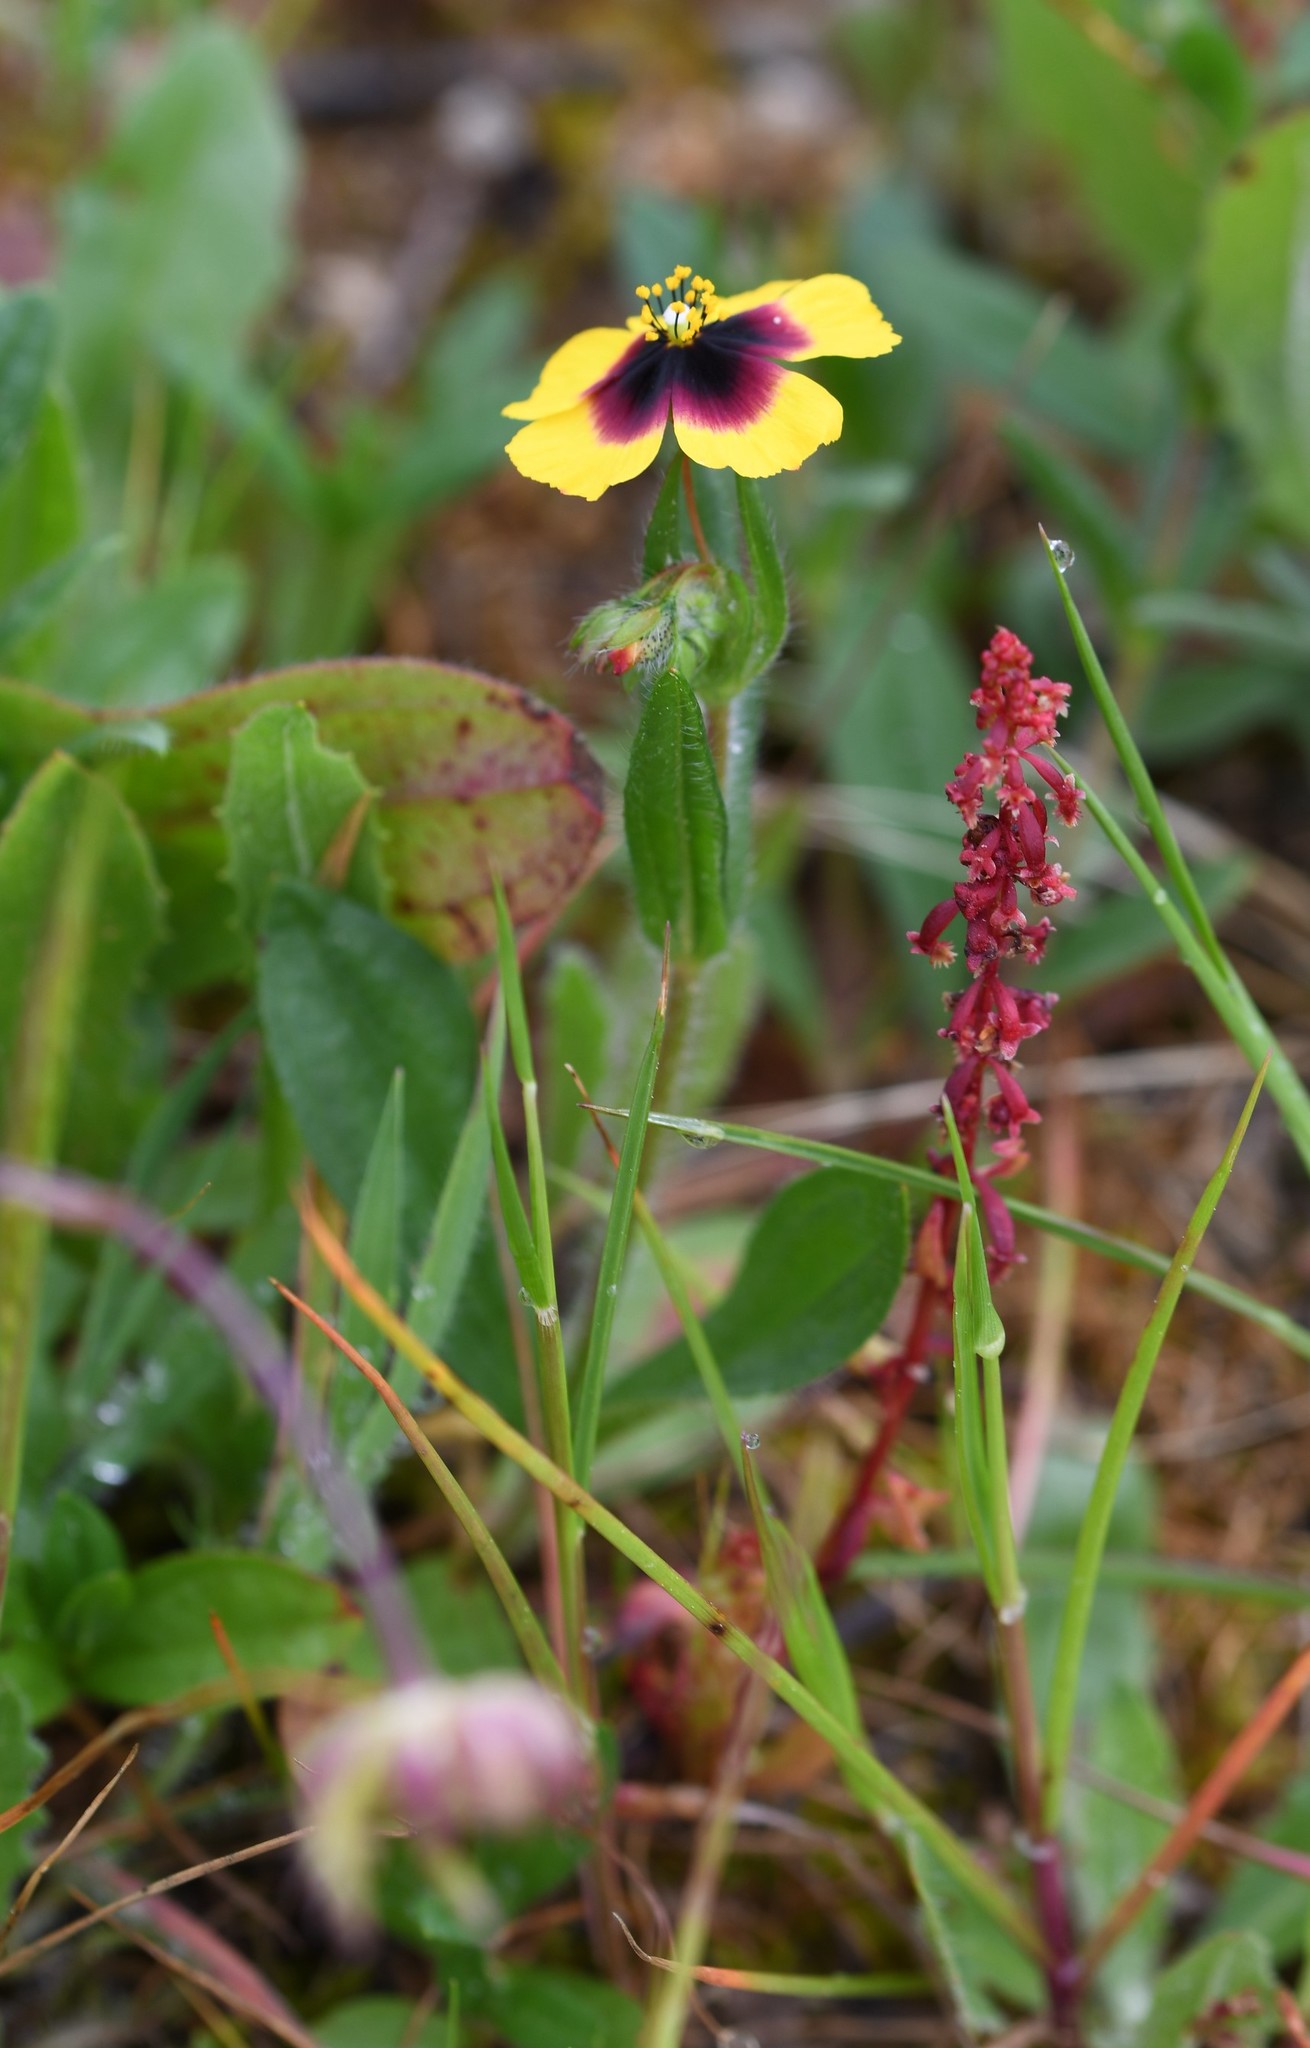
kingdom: Plantae
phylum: Tracheophyta
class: Magnoliopsida
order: Malvales
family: Cistaceae
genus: Tuberaria
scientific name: Tuberaria guttata
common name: Spotted rock-rose
